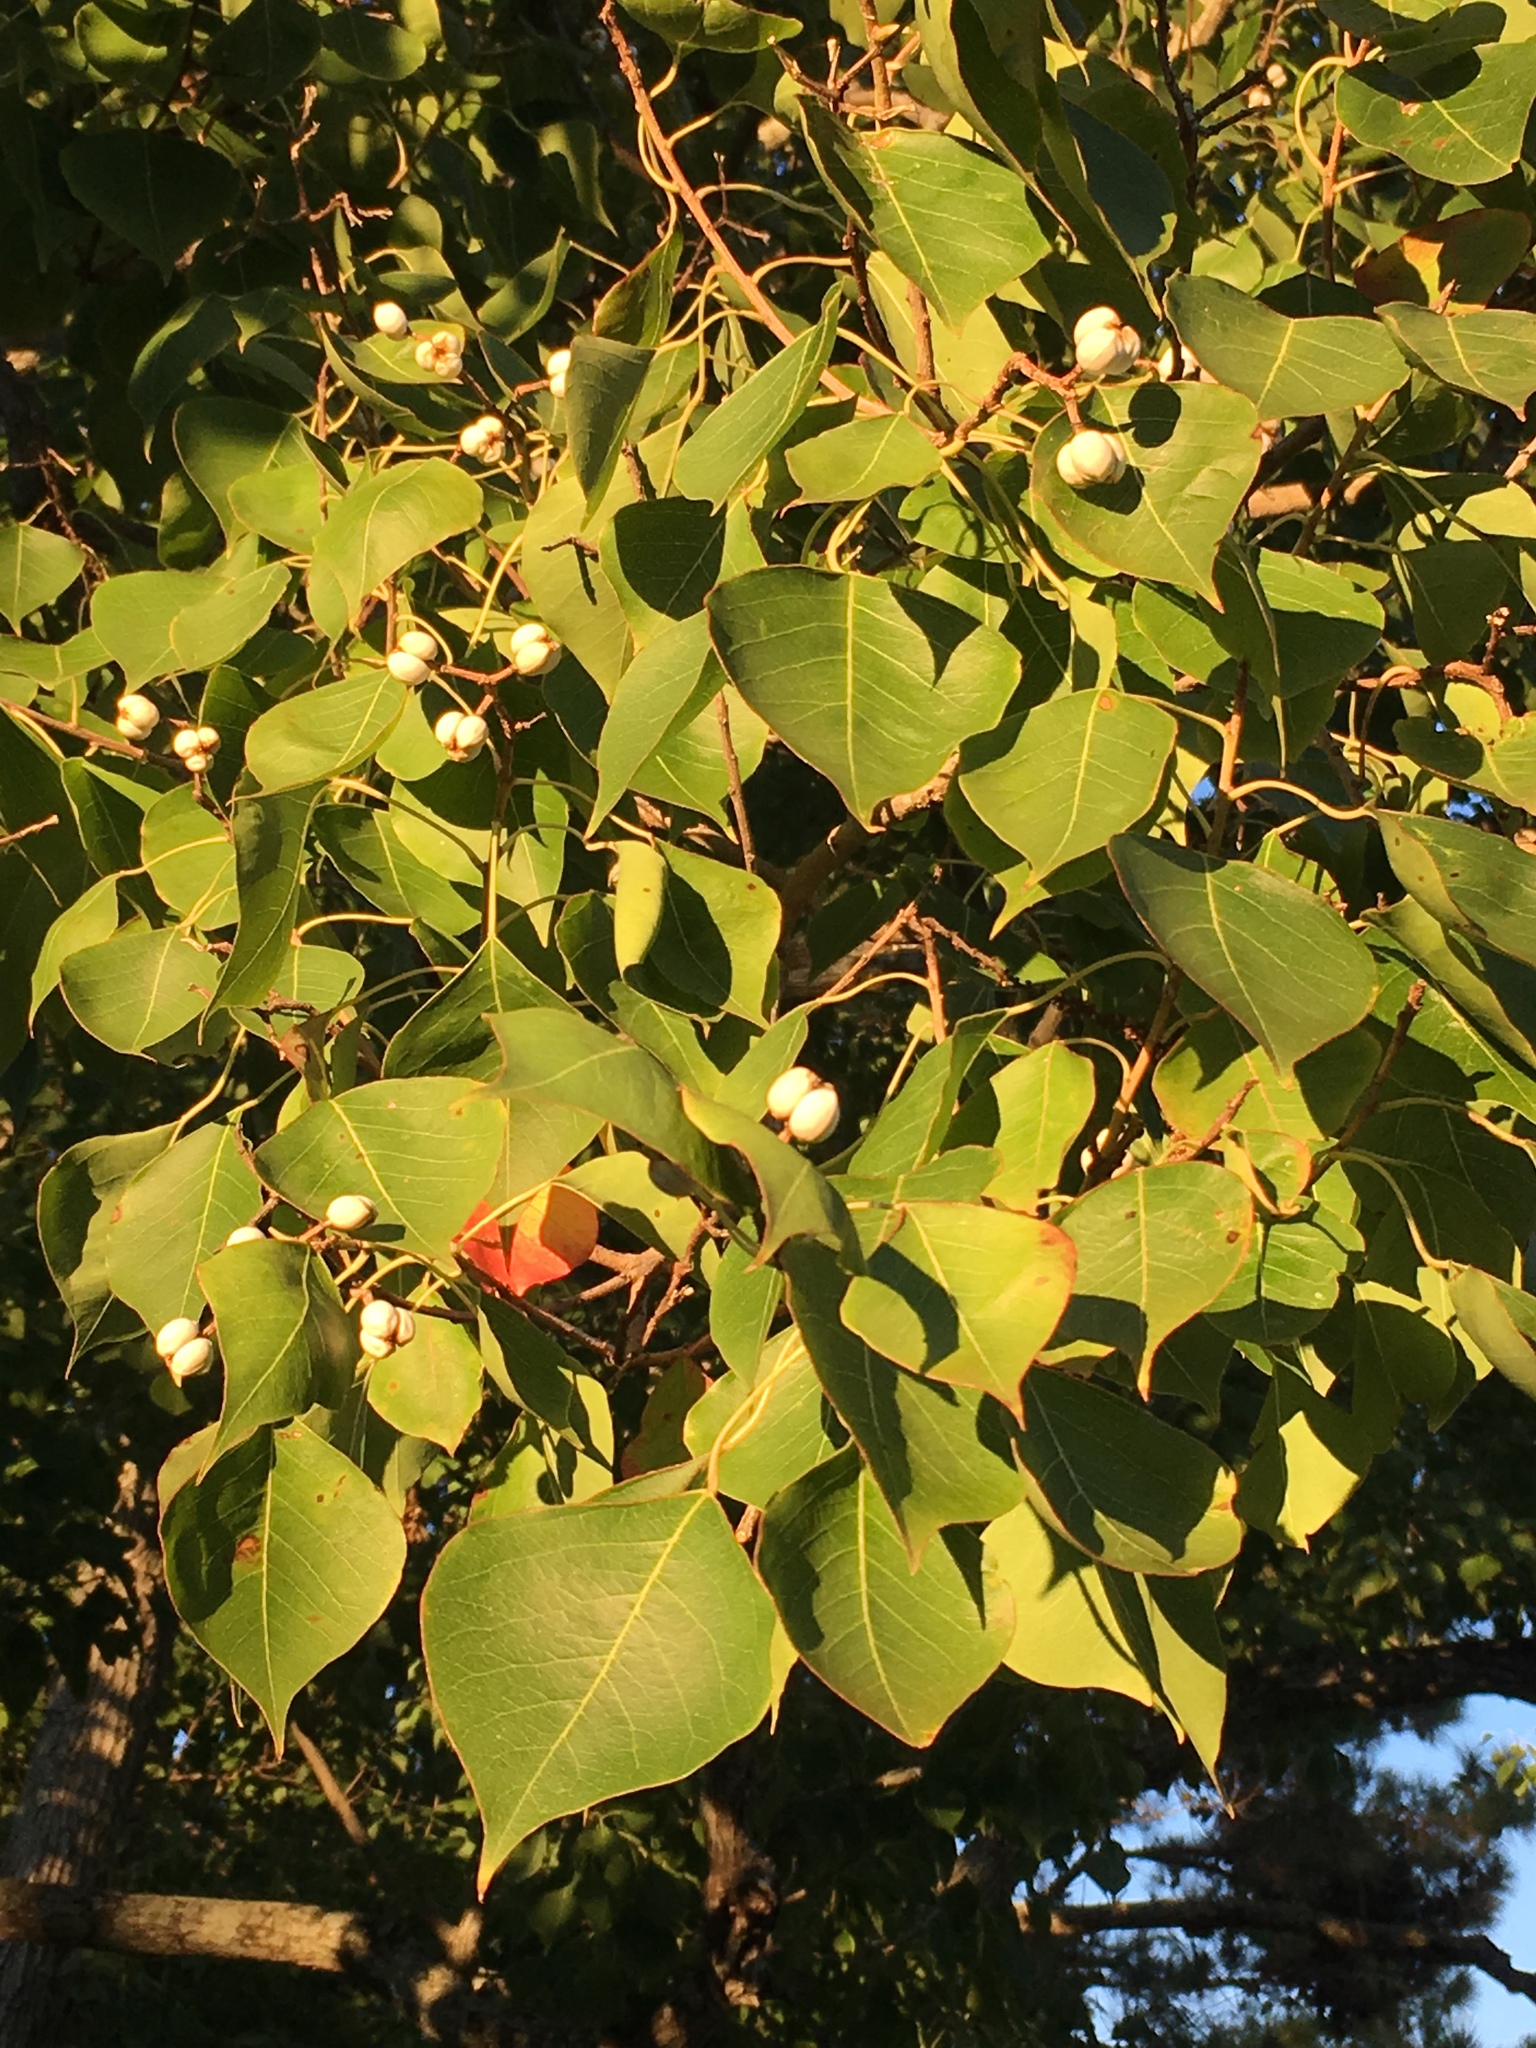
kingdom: Plantae
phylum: Tracheophyta
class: Magnoliopsida
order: Malpighiales
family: Euphorbiaceae
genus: Triadica
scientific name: Triadica sebifera
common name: Chinese tallow
